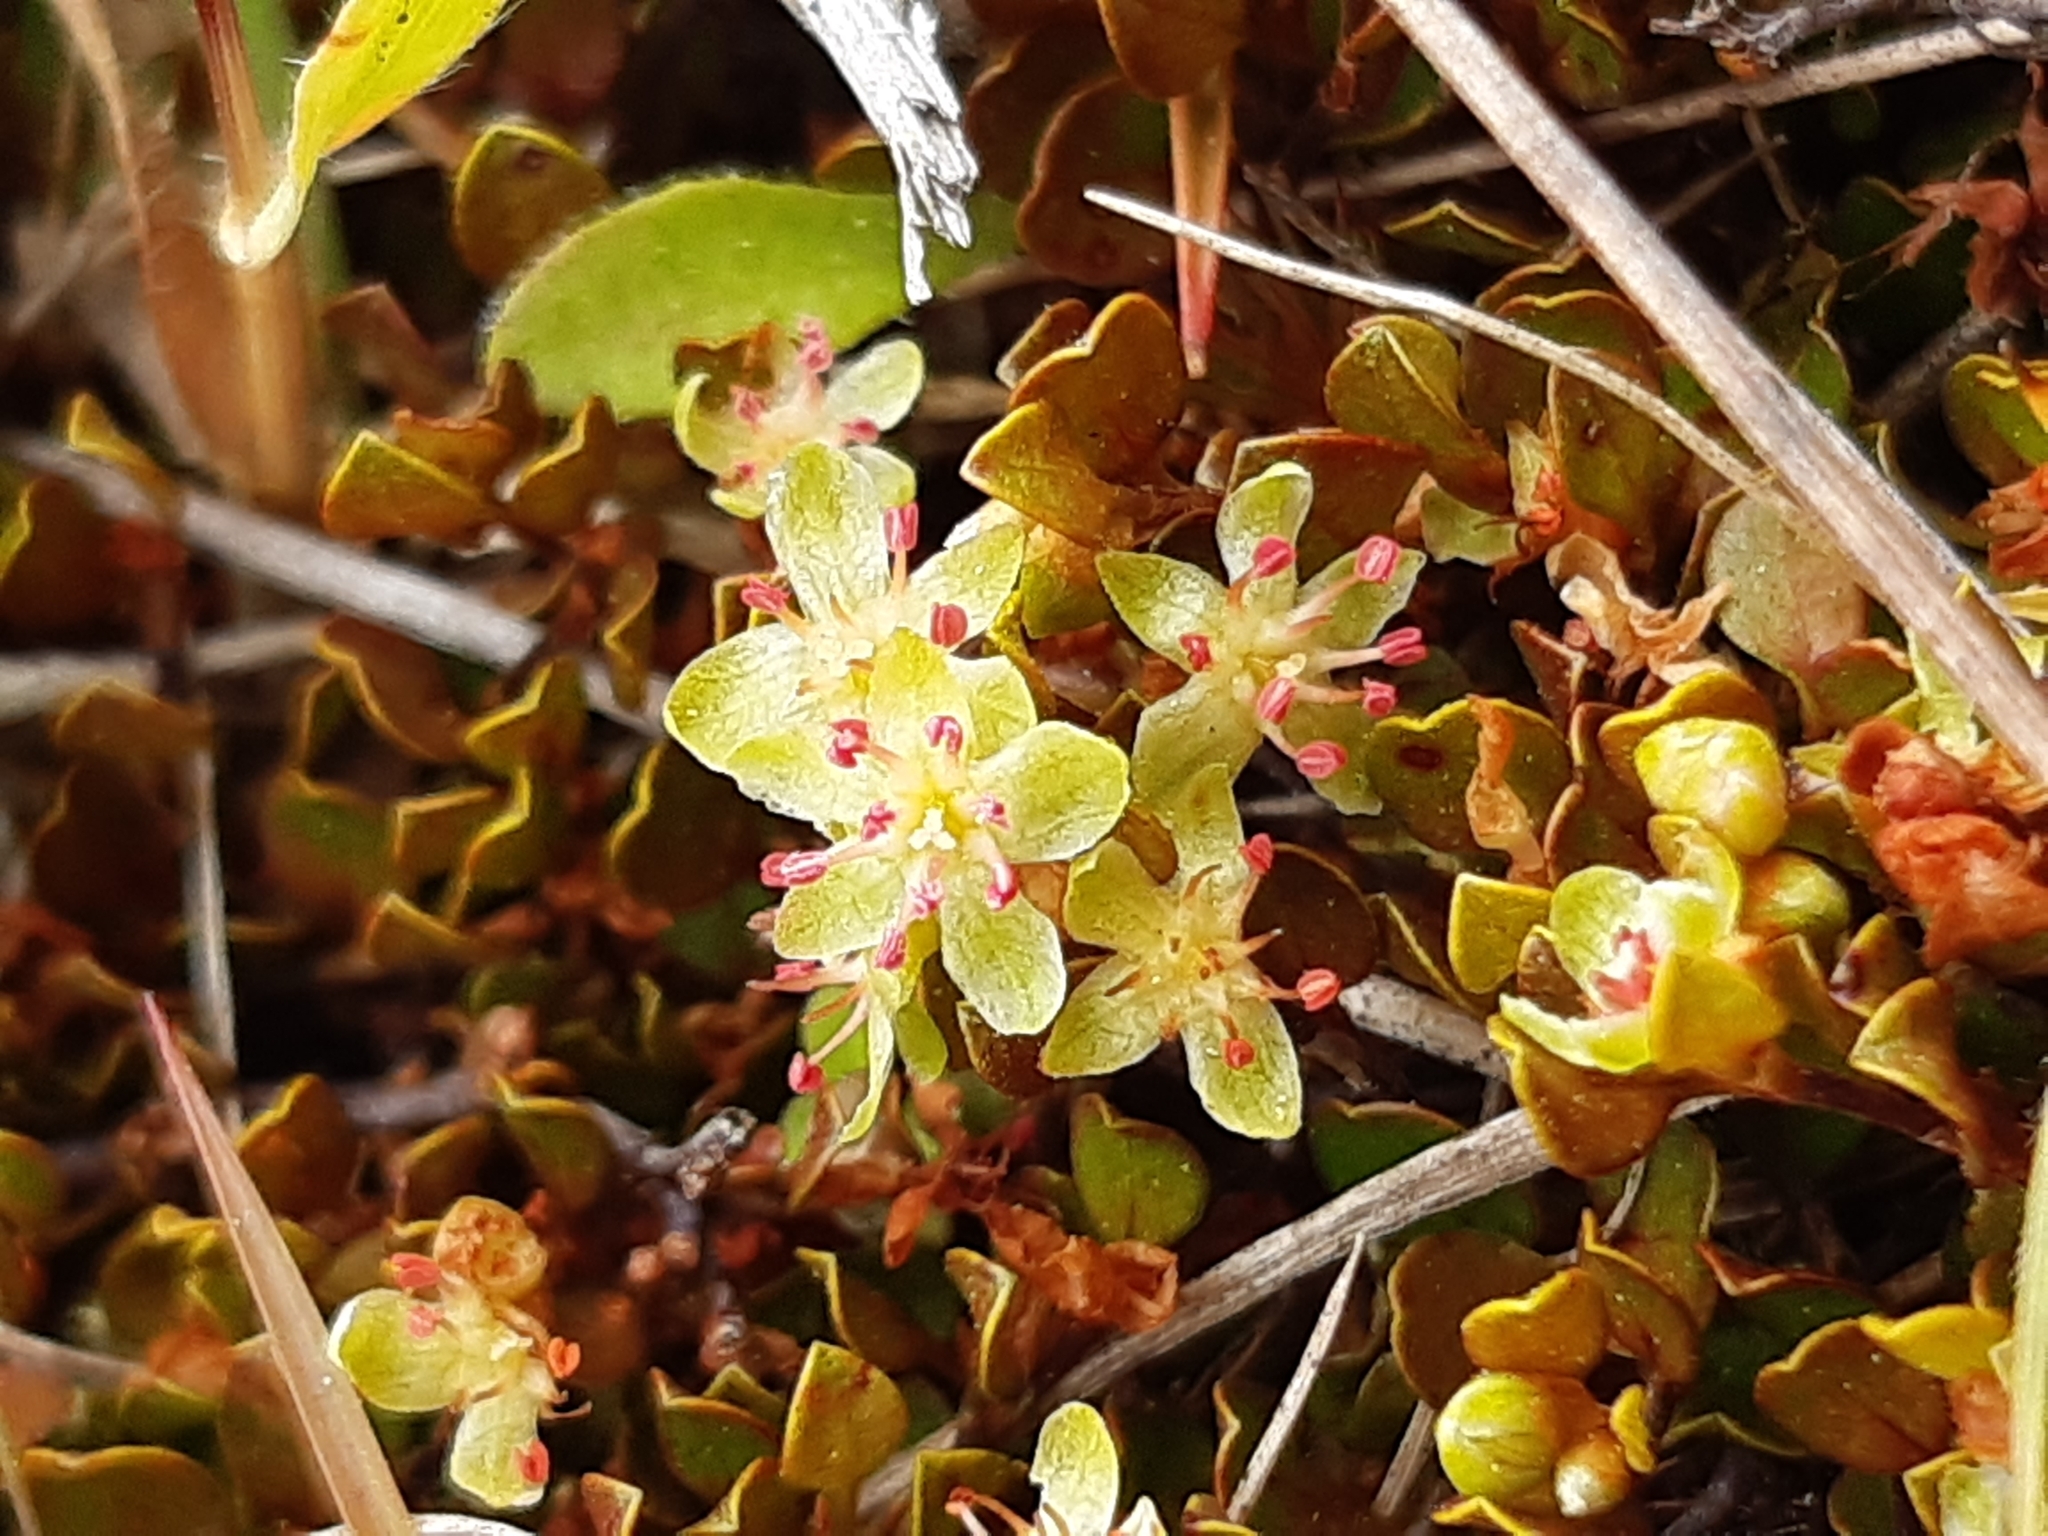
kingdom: Plantae
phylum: Tracheophyta
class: Magnoliopsida
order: Caryophyllales
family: Polygonaceae
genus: Muehlenbeckia
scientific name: Muehlenbeckia axillaris
